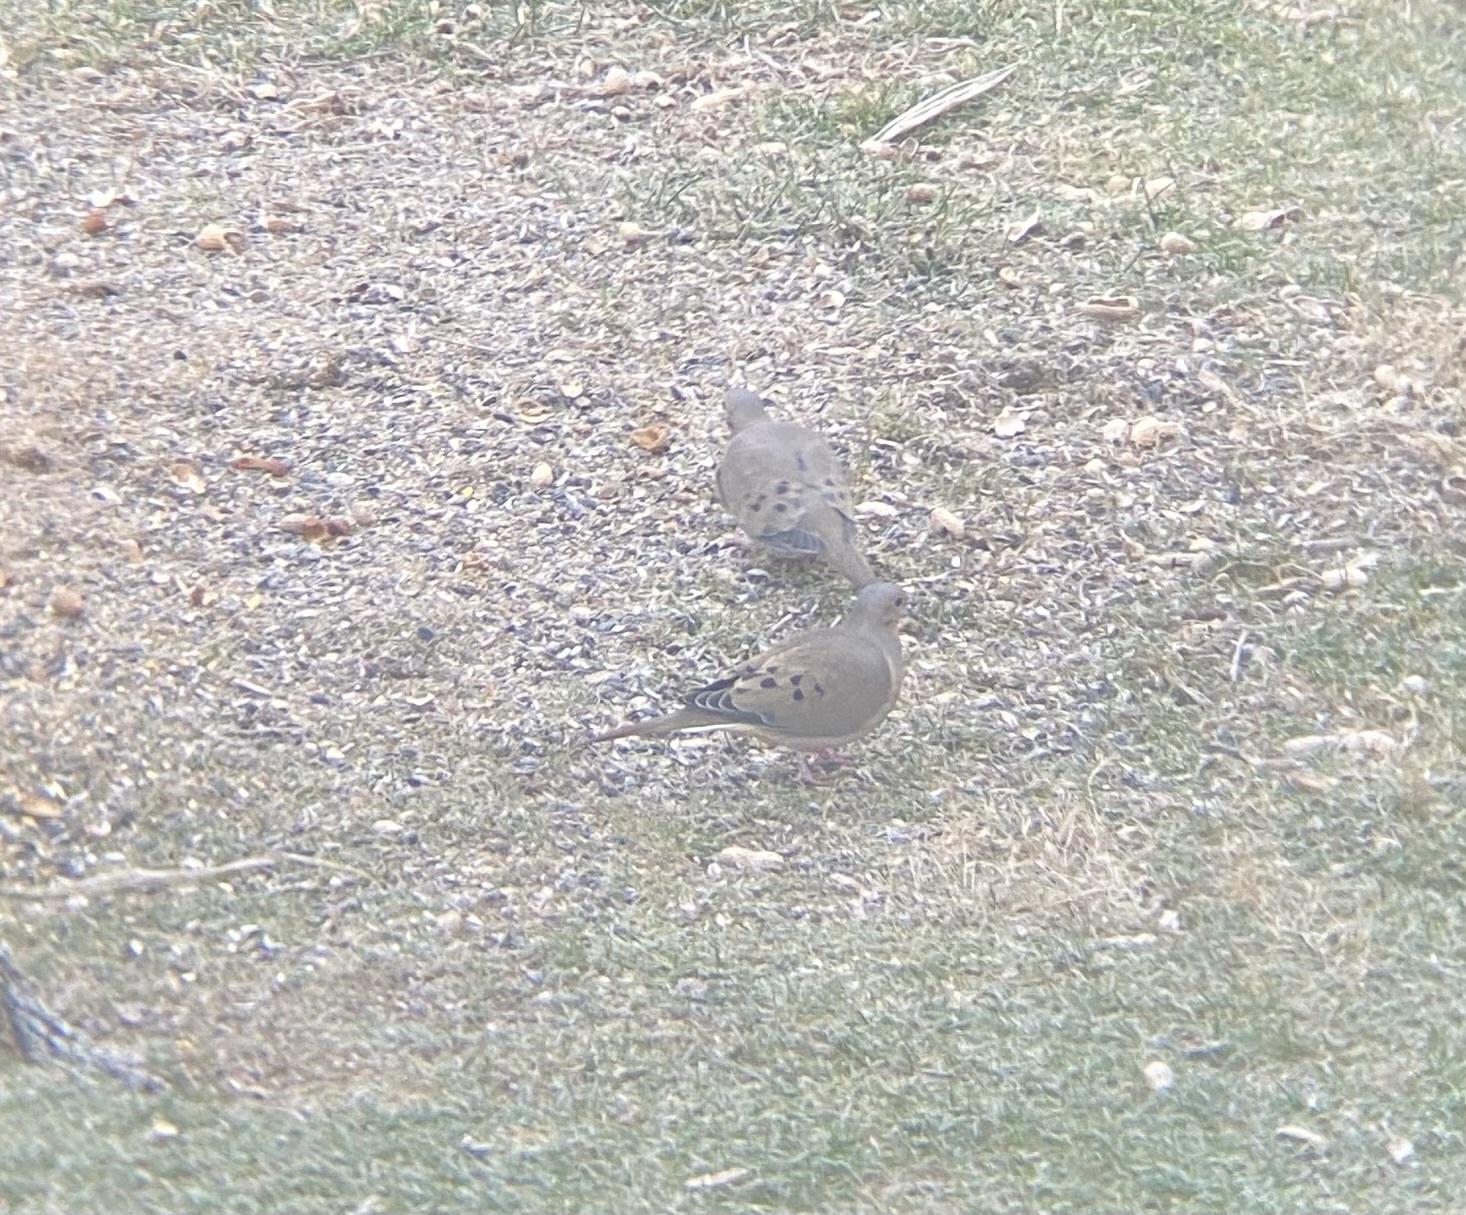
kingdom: Animalia
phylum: Chordata
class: Aves
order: Columbiformes
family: Columbidae
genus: Zenaida
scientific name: Zenaida macroura
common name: Mourning dove
